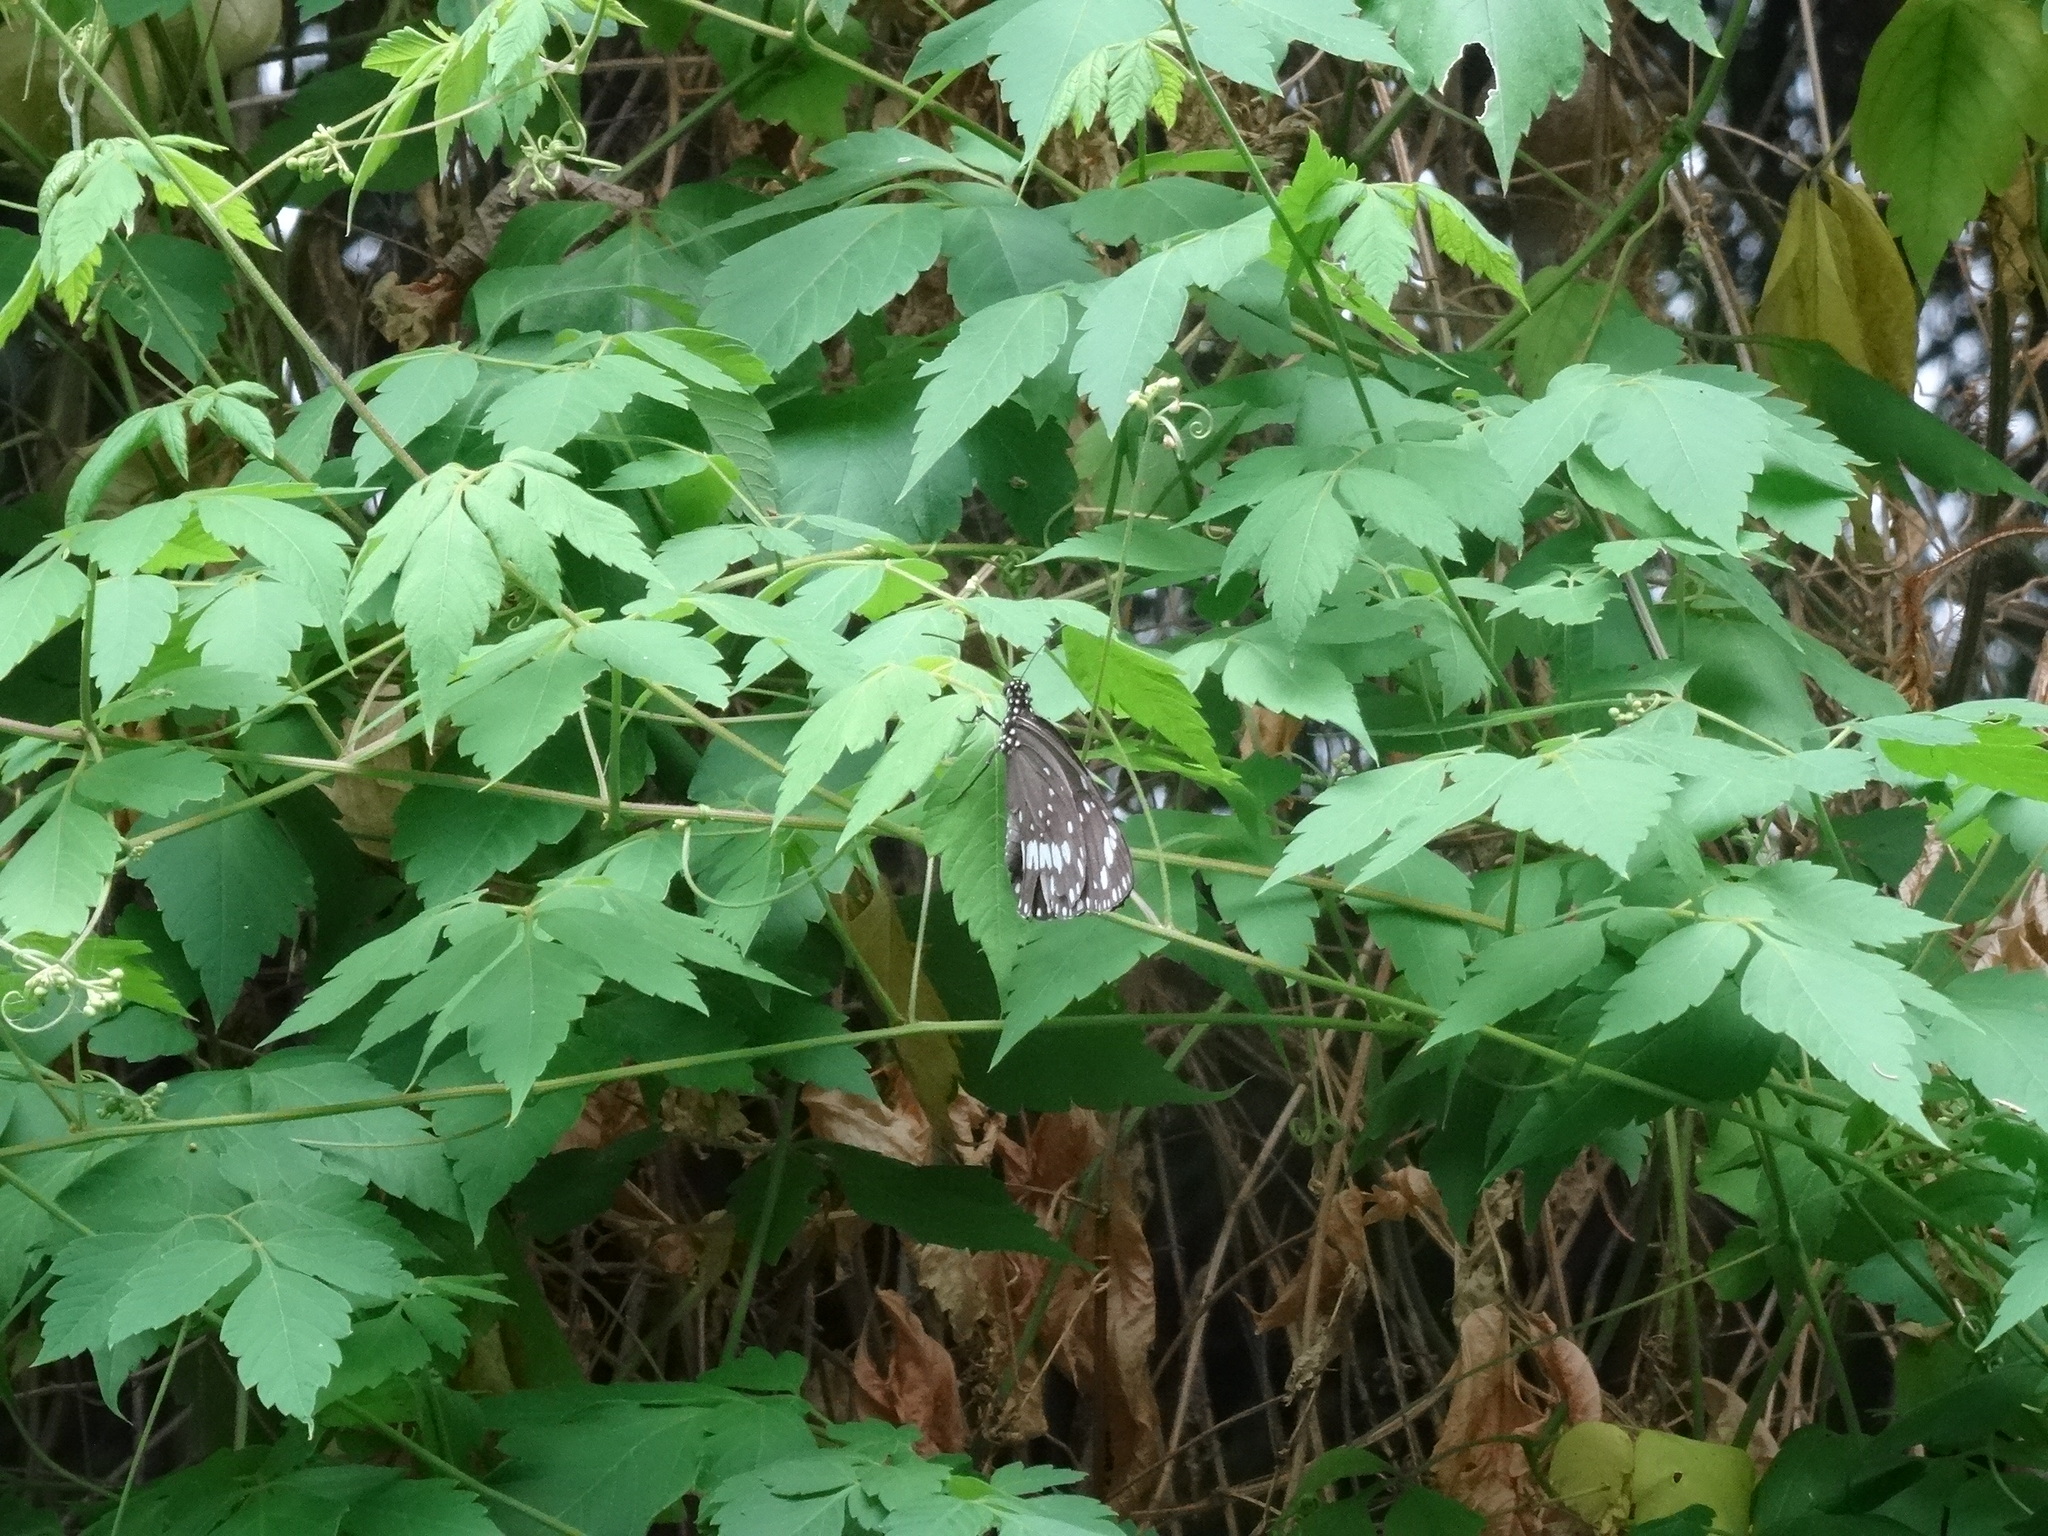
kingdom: Animalia
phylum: Arthropoda
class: Insecta
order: Lepidoptera
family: Nymphalidae
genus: Euploea
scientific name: Euploea core
